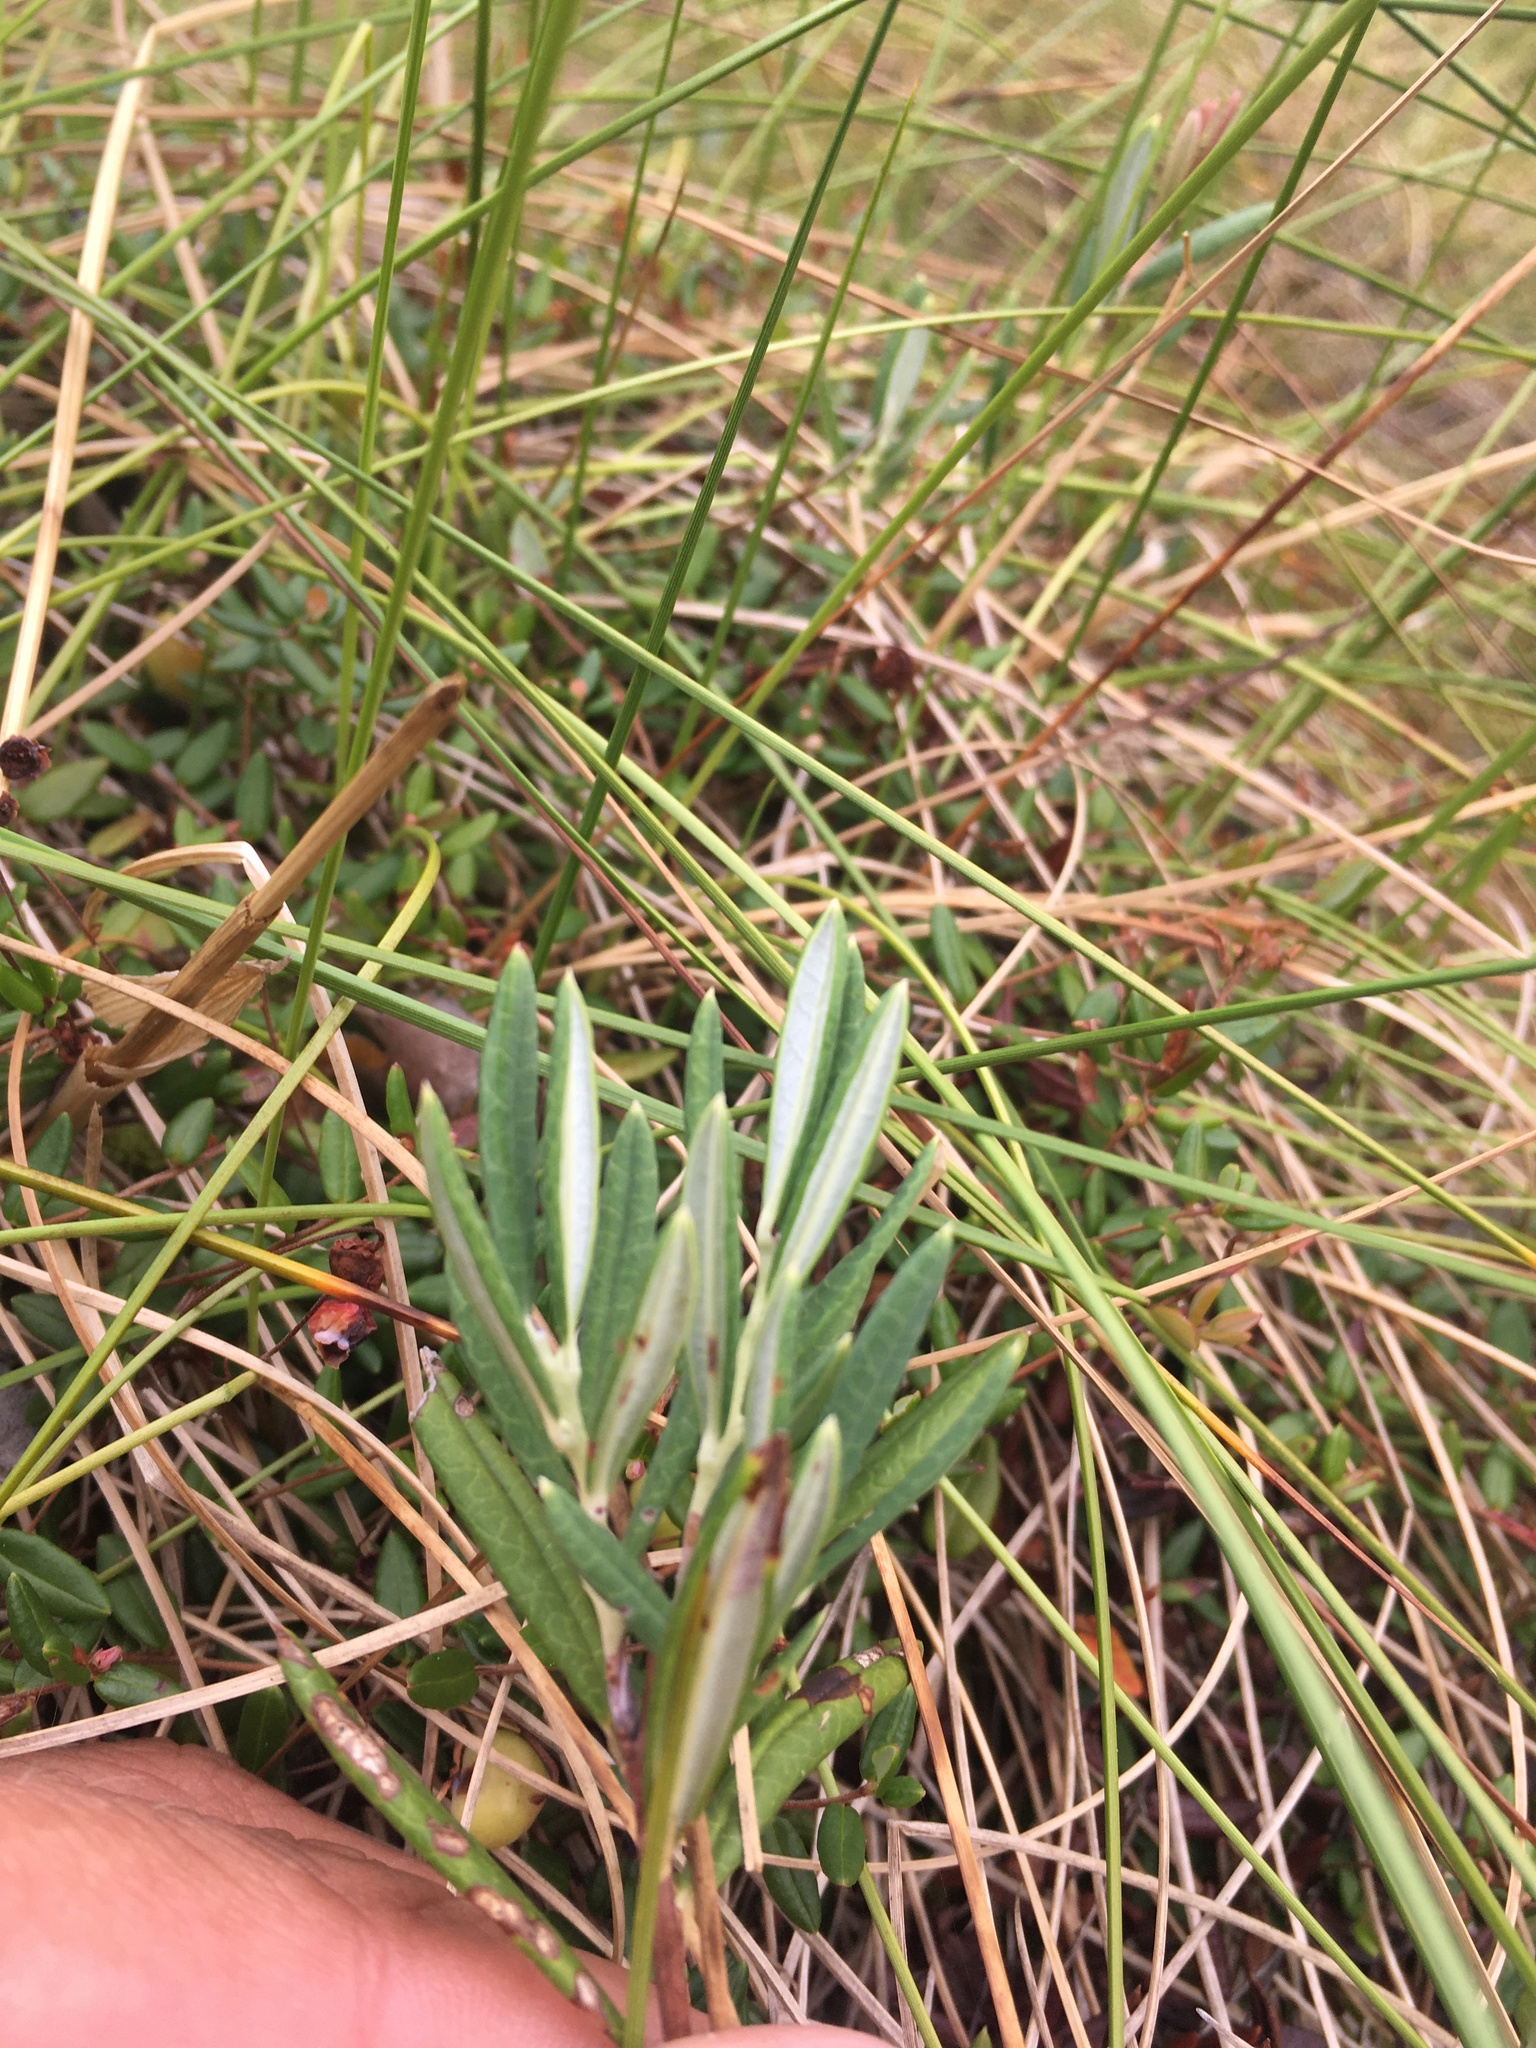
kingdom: Plantae
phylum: Tracheophyta
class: Magnoliopsida
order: Ericales
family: Ericaceae
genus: Andromeda
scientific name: Andromeda polifolia
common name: Bog-rosemary
